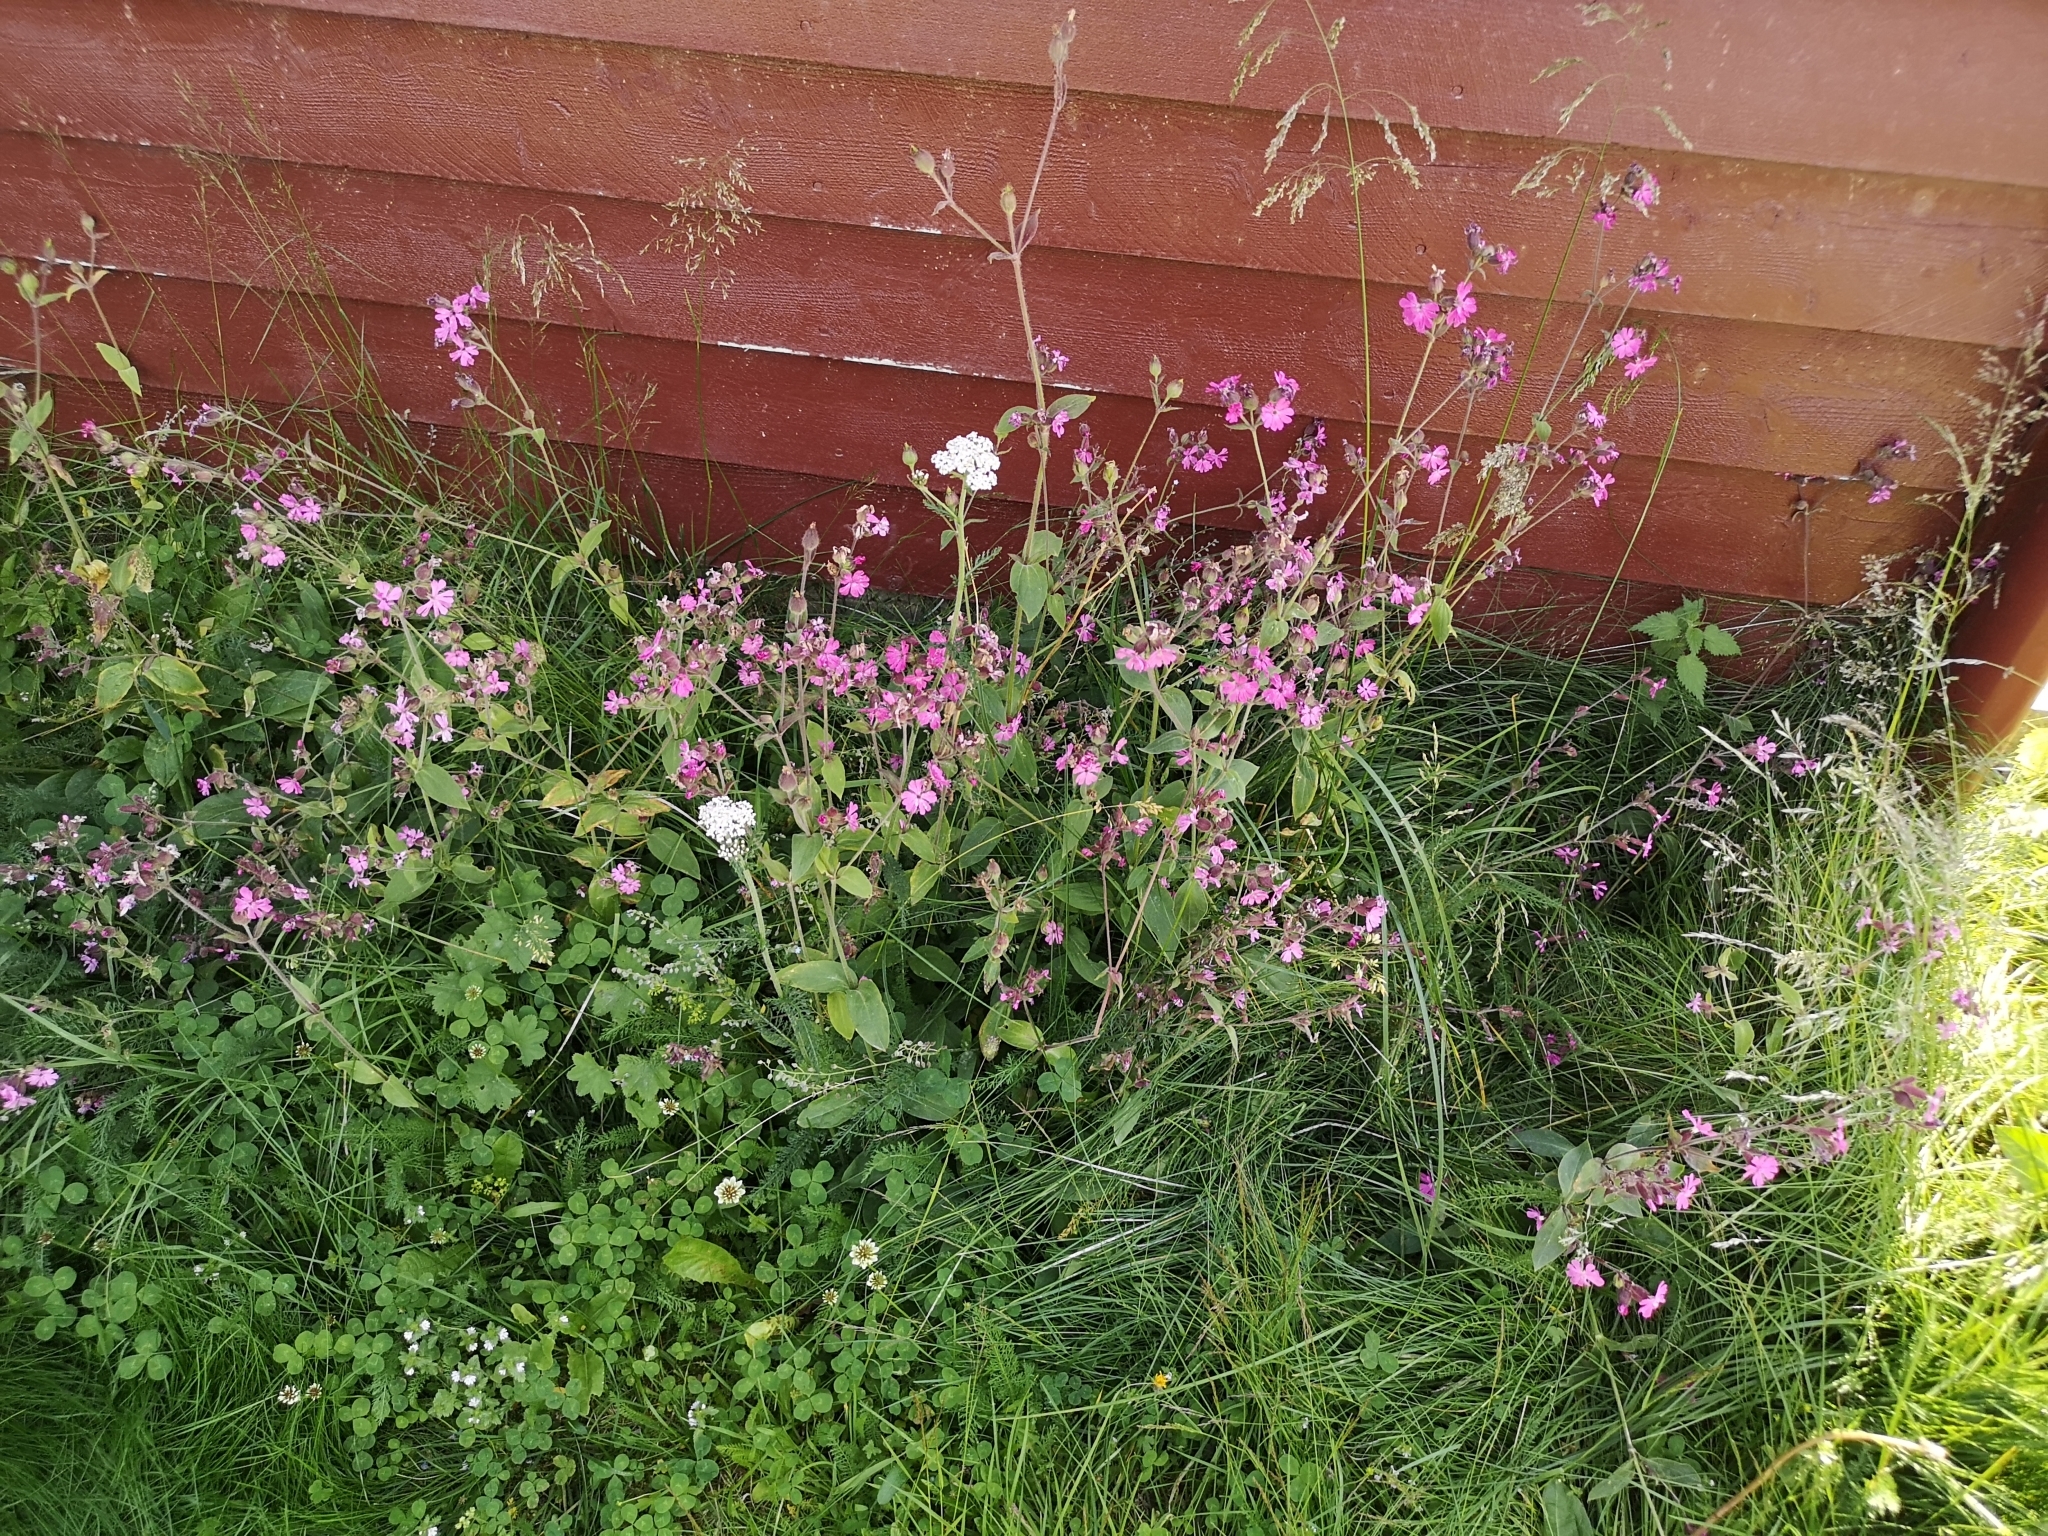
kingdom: Plantae
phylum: Tracheophyta
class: Magnoliopsida
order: Caryophyllales
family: Caryophyllaceae
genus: Silene
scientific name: Silene dioica
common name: Red campion
